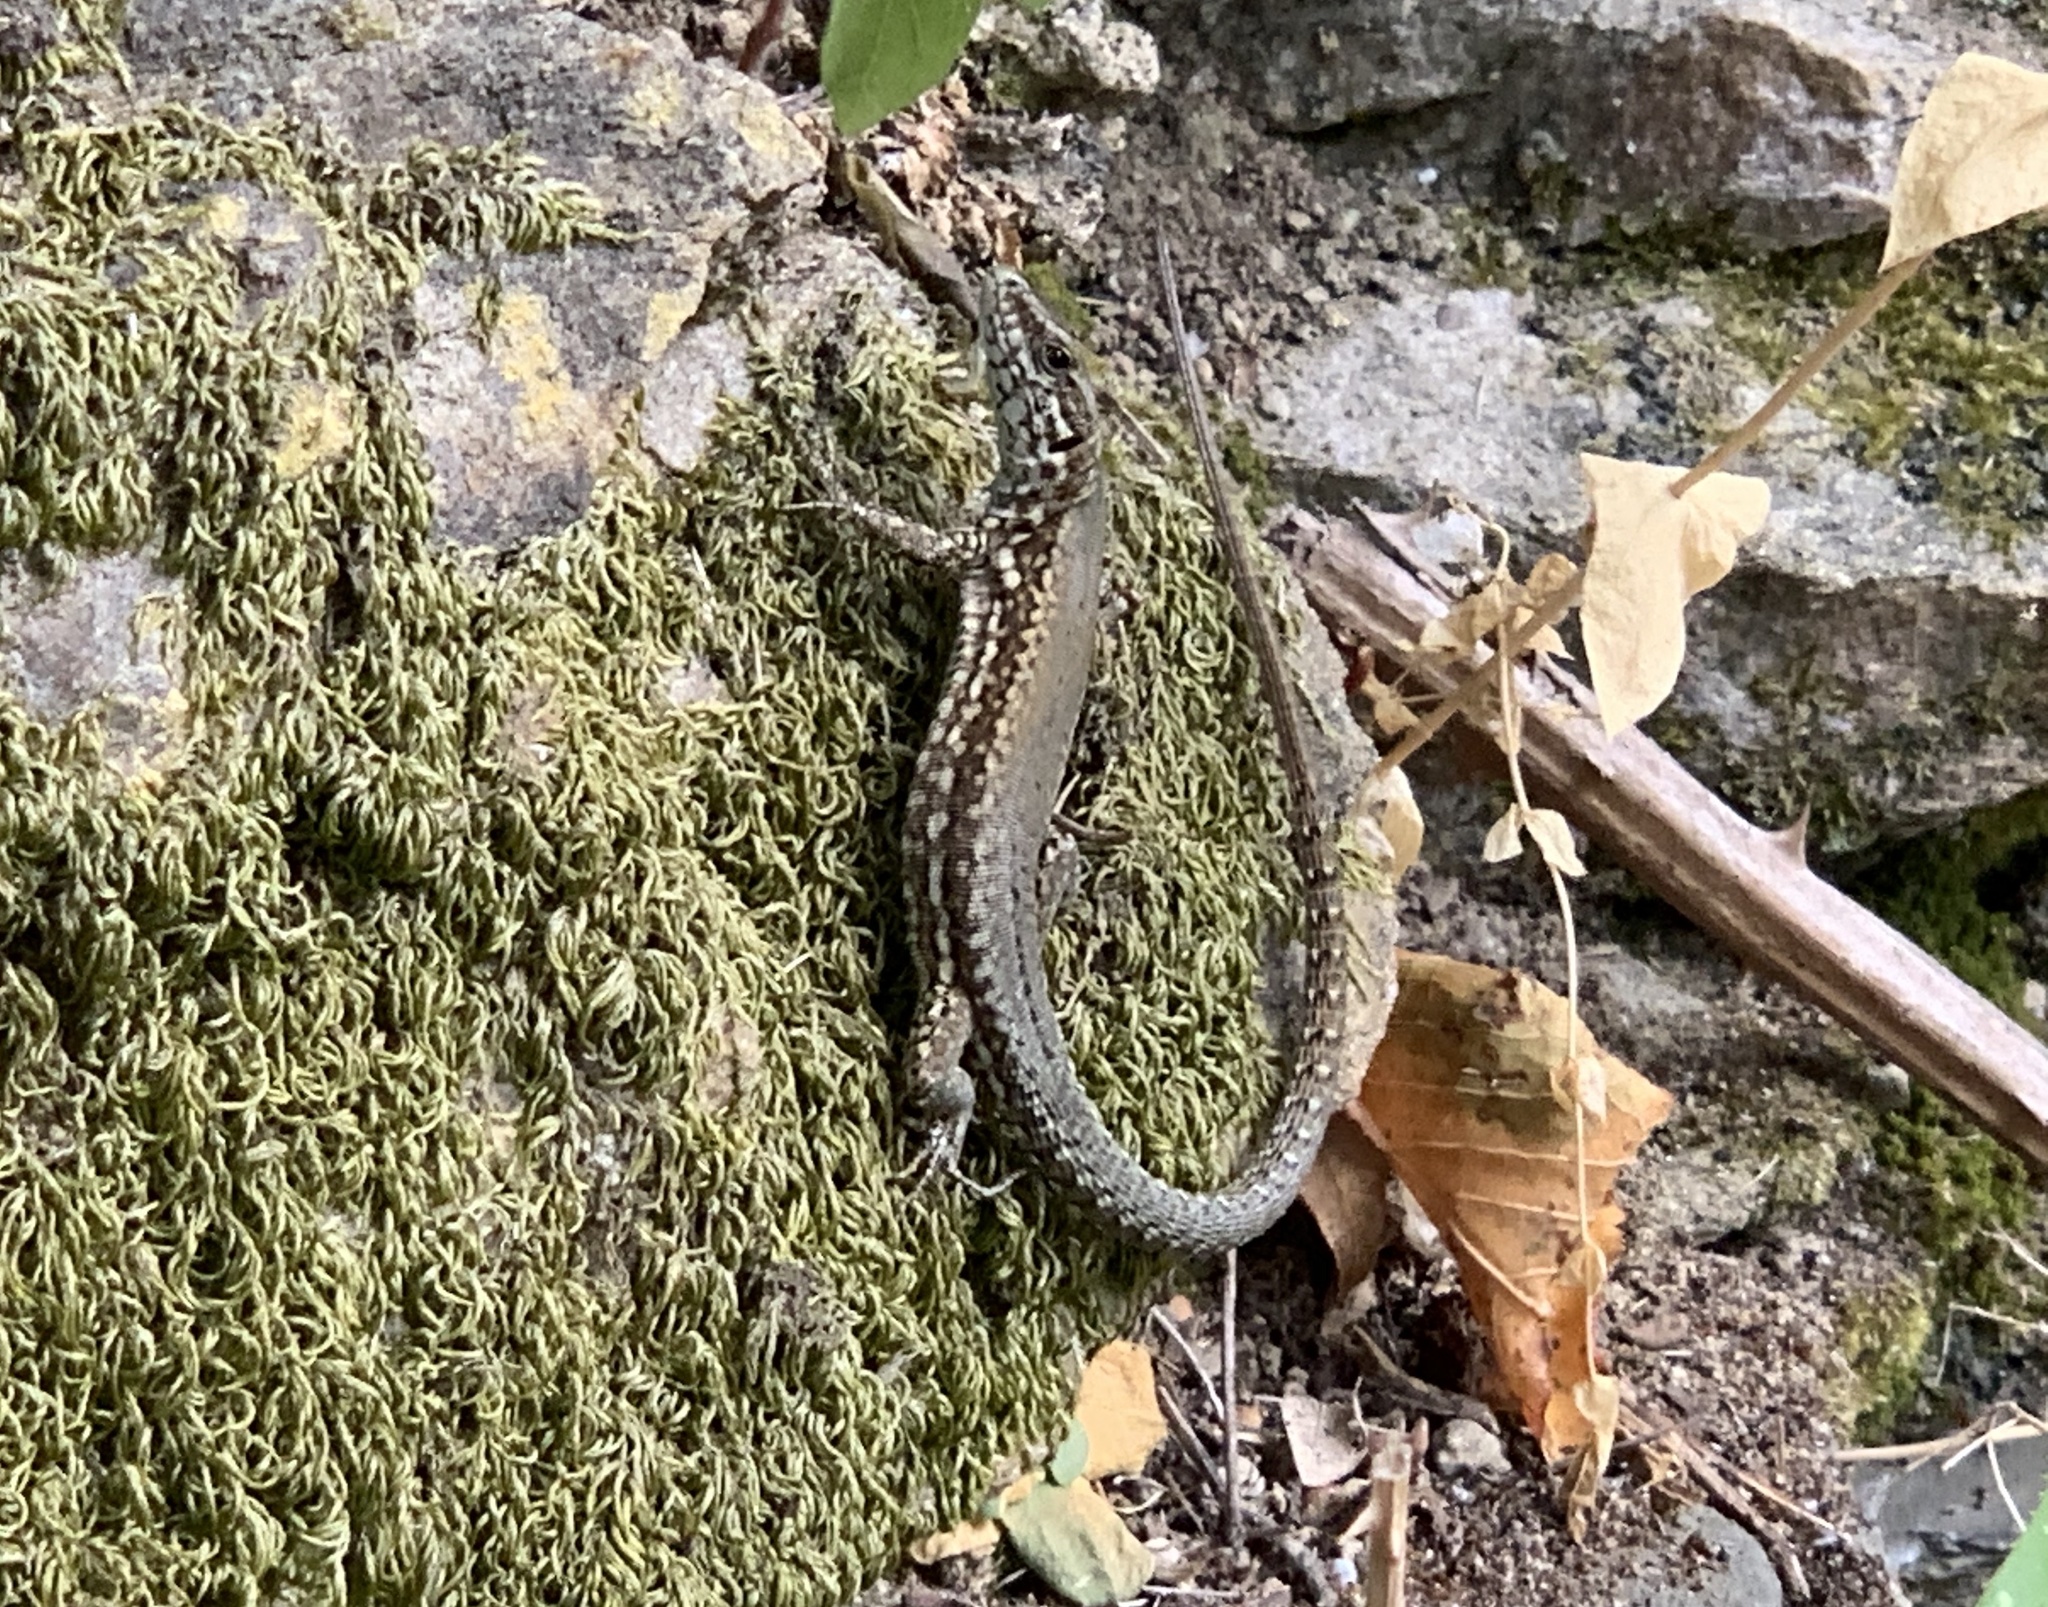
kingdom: Animalia
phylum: Chordata
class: Squamata
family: Lacertidae
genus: Podarcis
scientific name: Podarcis muralis
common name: Common wall lizard
